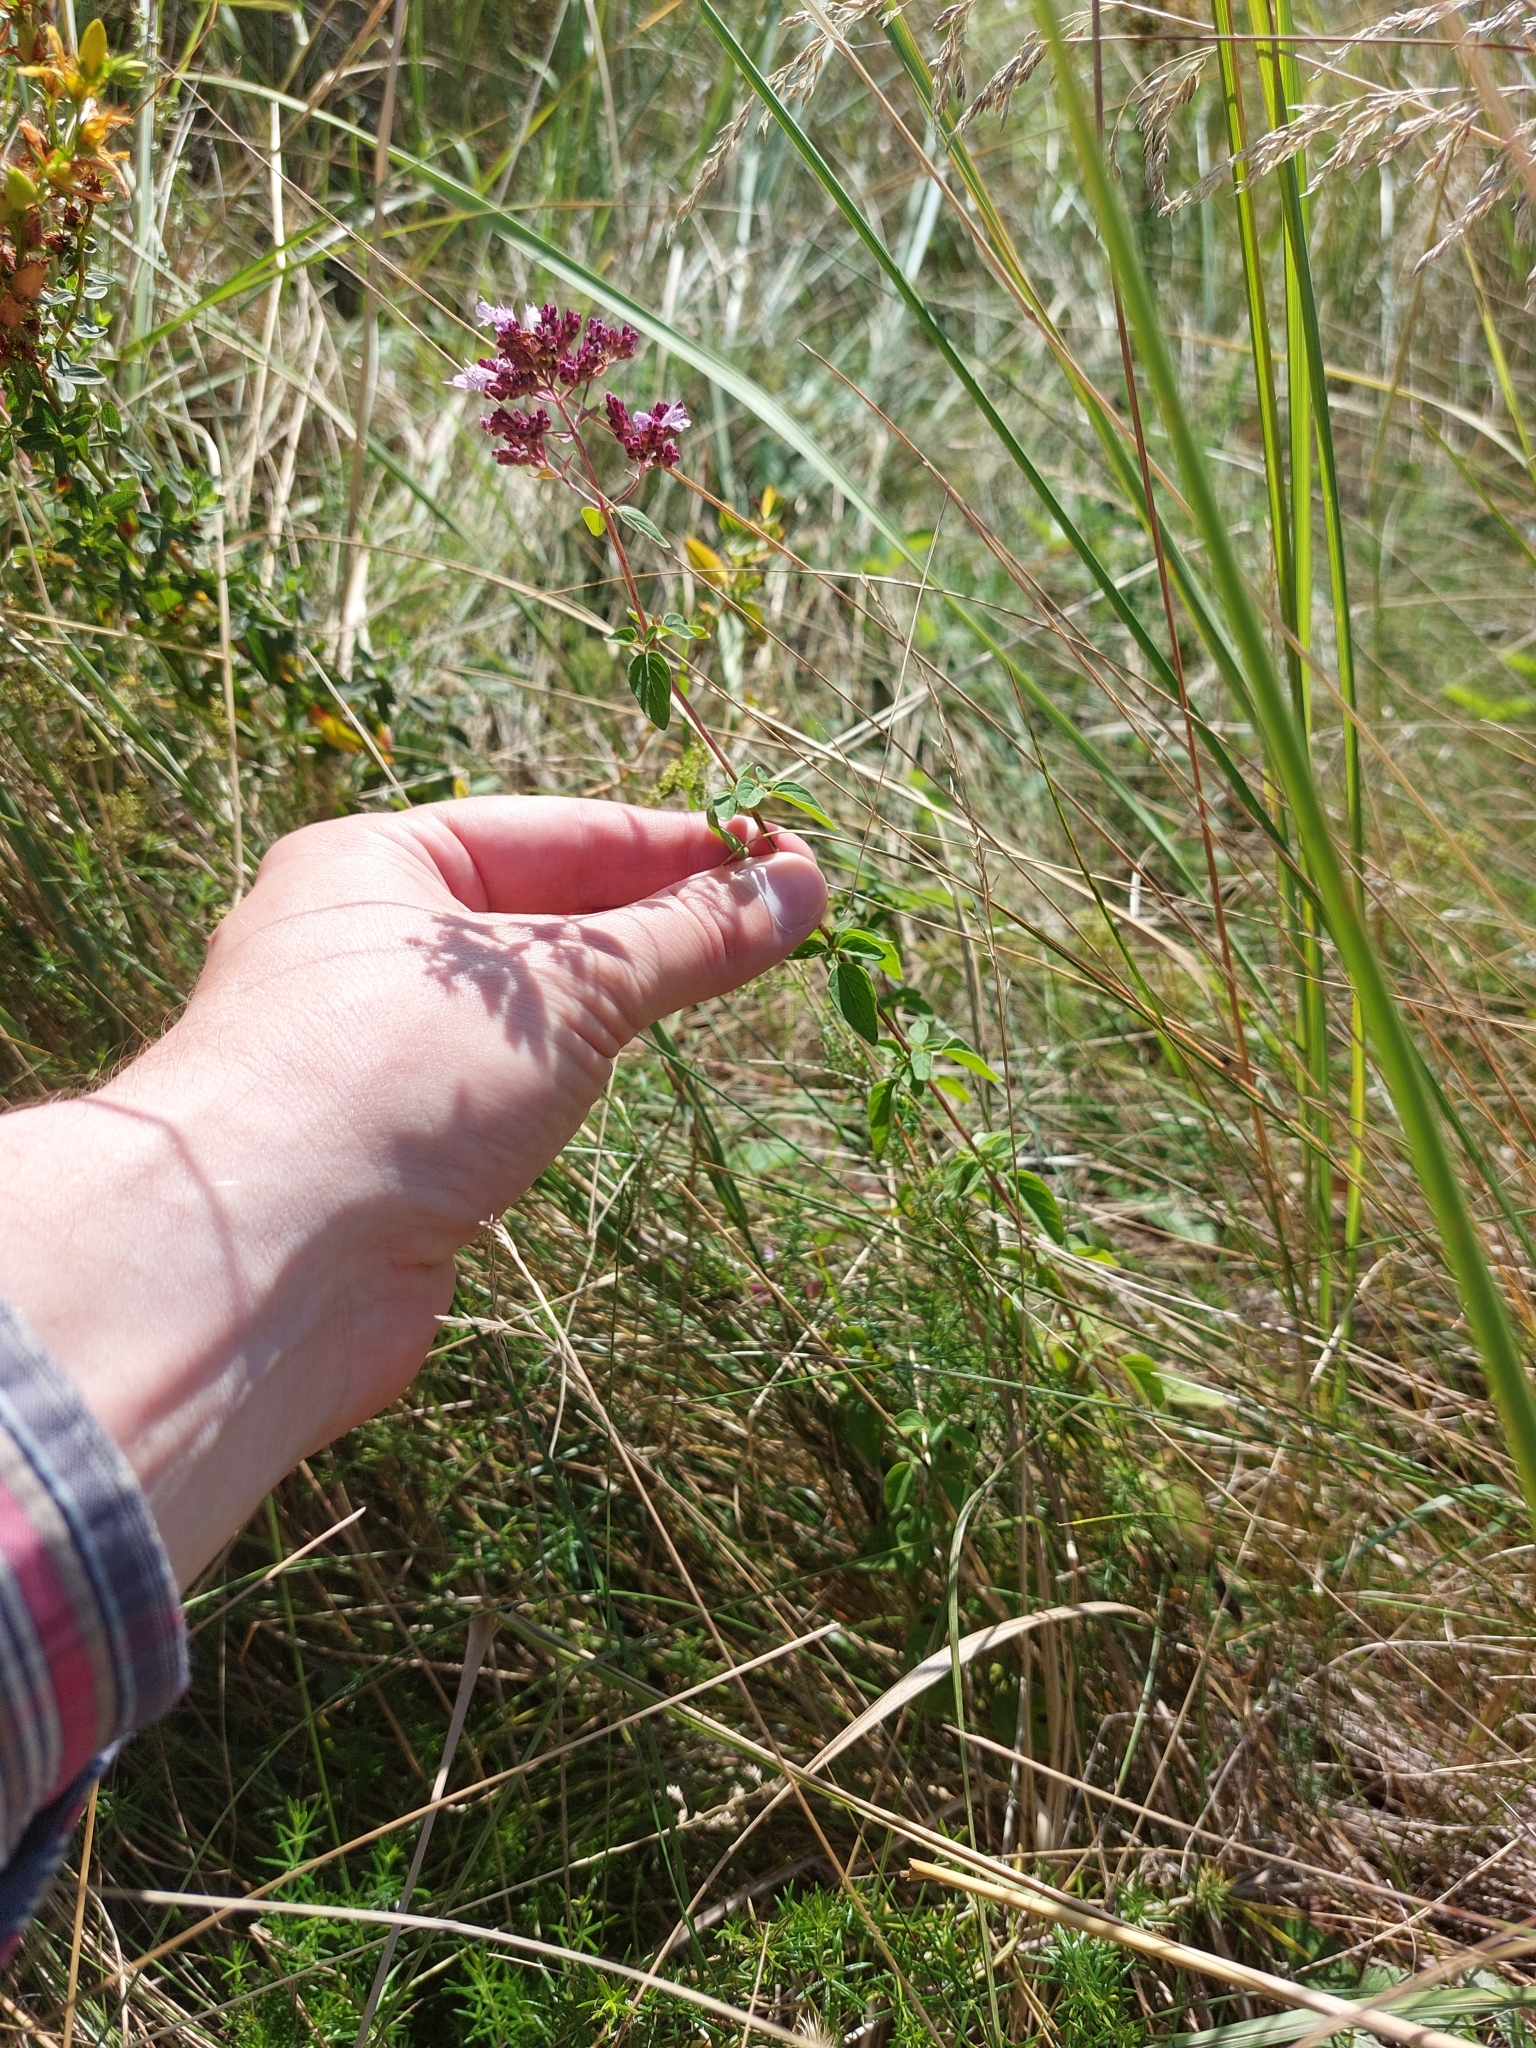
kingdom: Plantae
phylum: Tracheophyta
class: Magnoliopsida
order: Lamiales
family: Lamiaceae
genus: Origanum
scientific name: Origanum vulgare
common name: Wild marjoram
